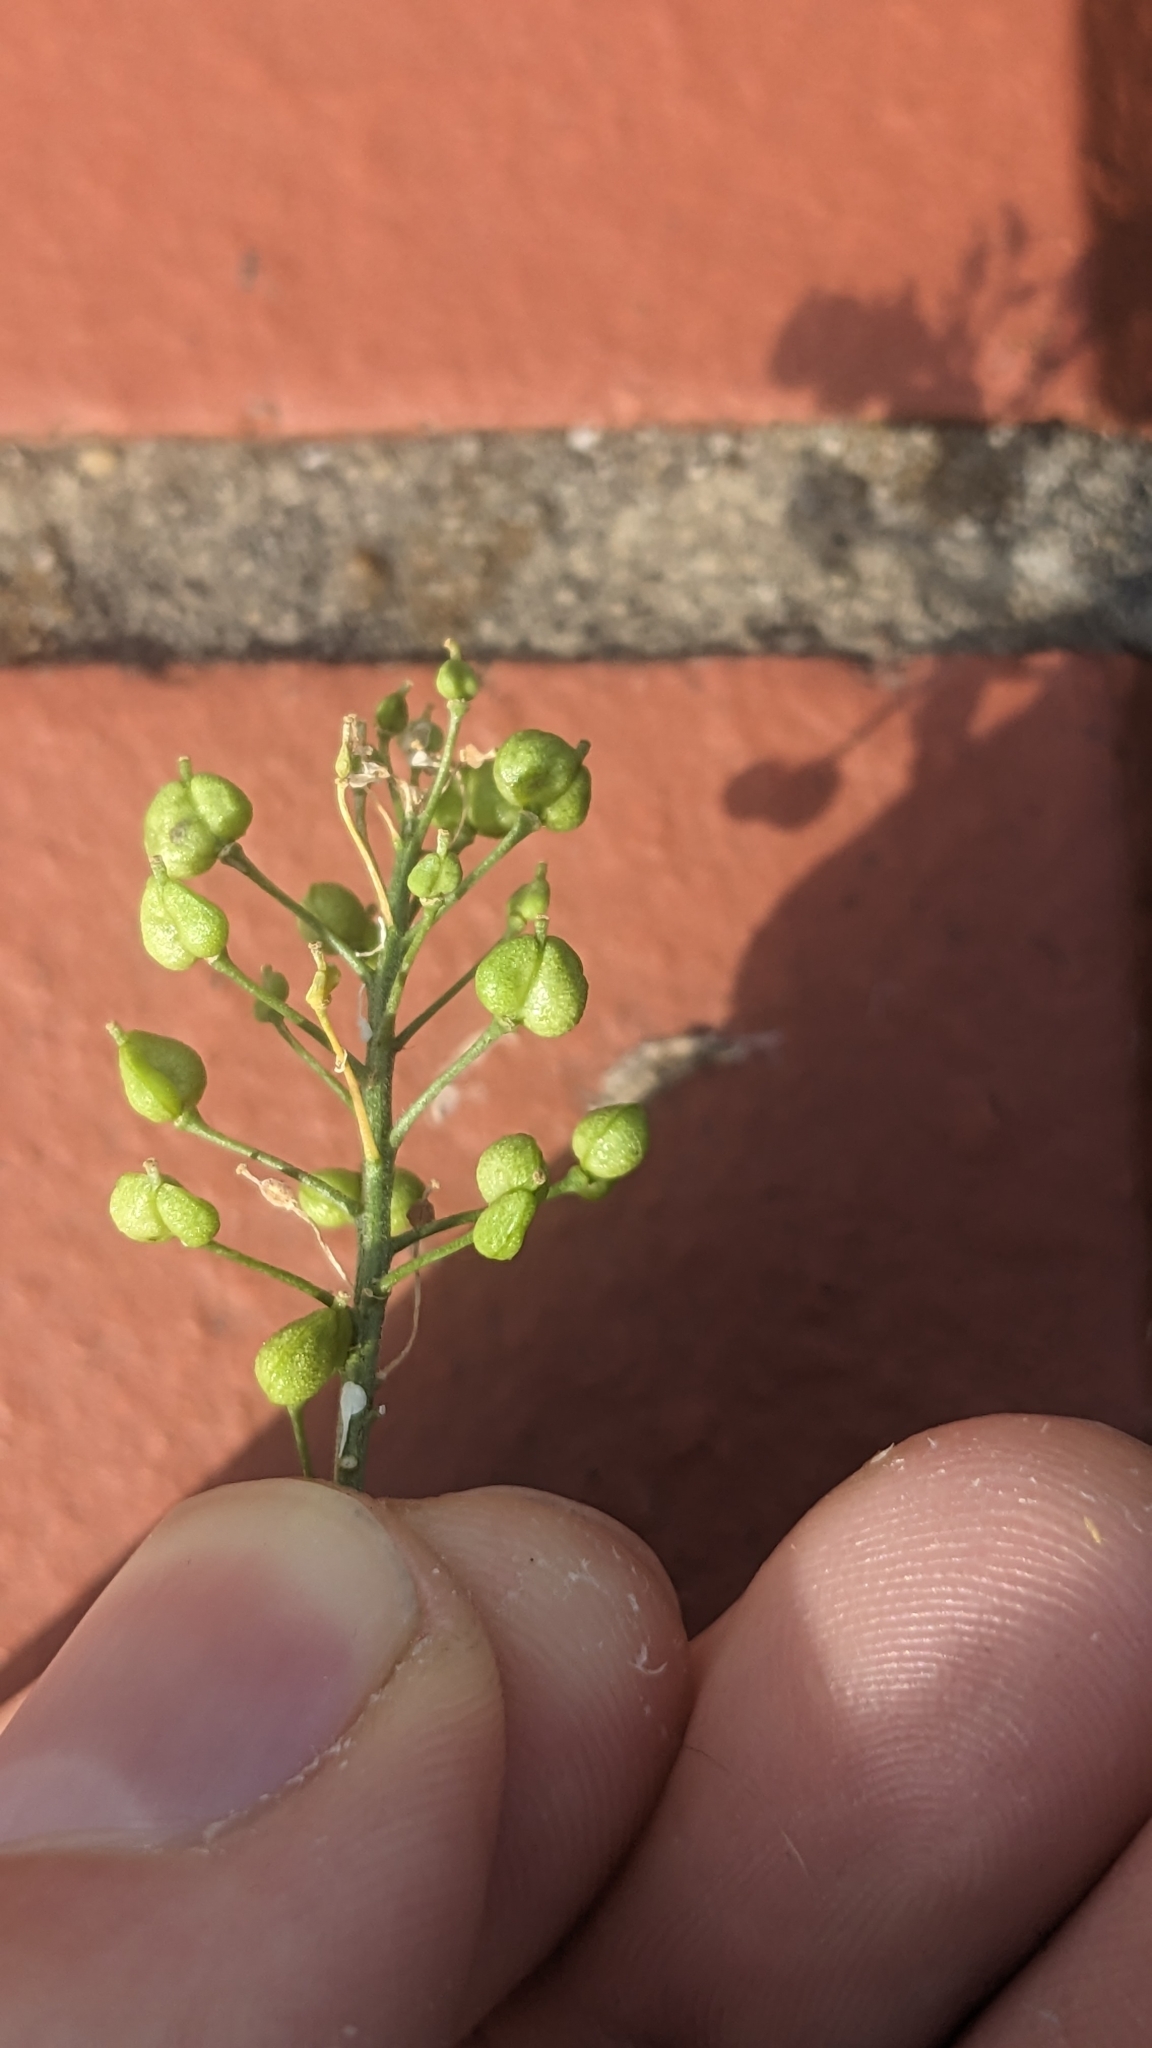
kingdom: Plantae
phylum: Tracheophyta
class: Magnoliopsida
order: Brassicales
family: Brassicaceae
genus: Lepidium
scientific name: Lepidium draba
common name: Hoary cress
